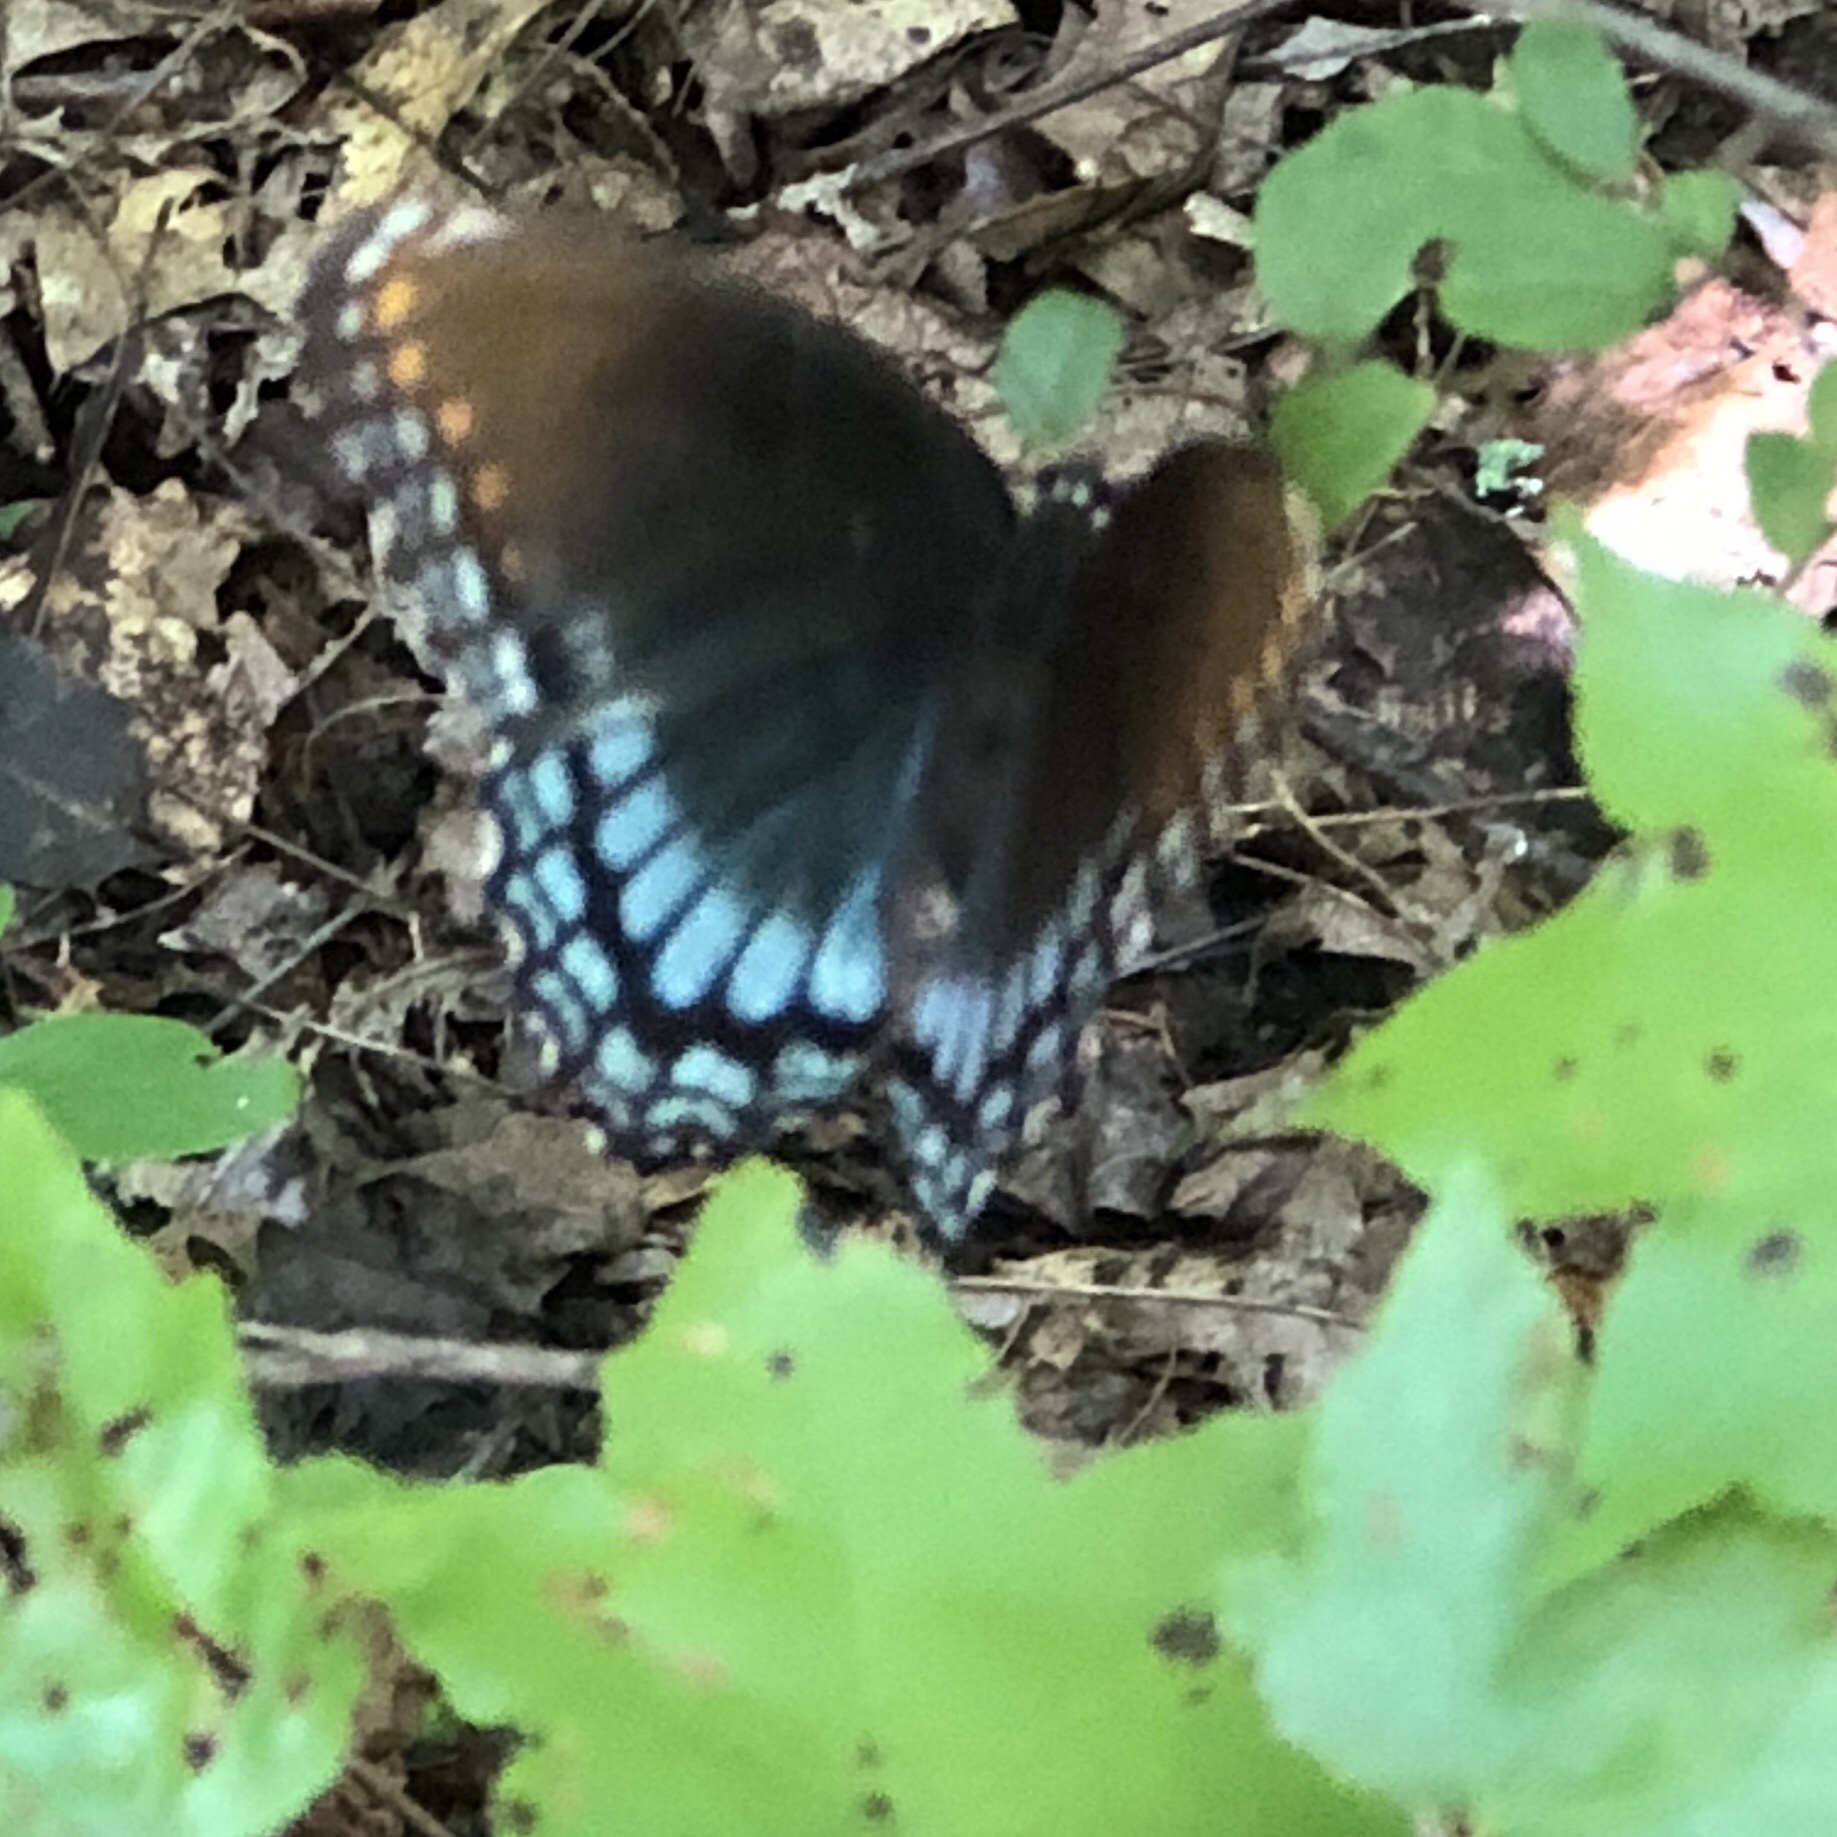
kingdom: Animalia
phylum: Arthropoda
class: Insecta
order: Lepidoptera
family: Nymphalidae
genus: Limenitis
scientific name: Limenitis arthemis
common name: Red-spotted admiral
